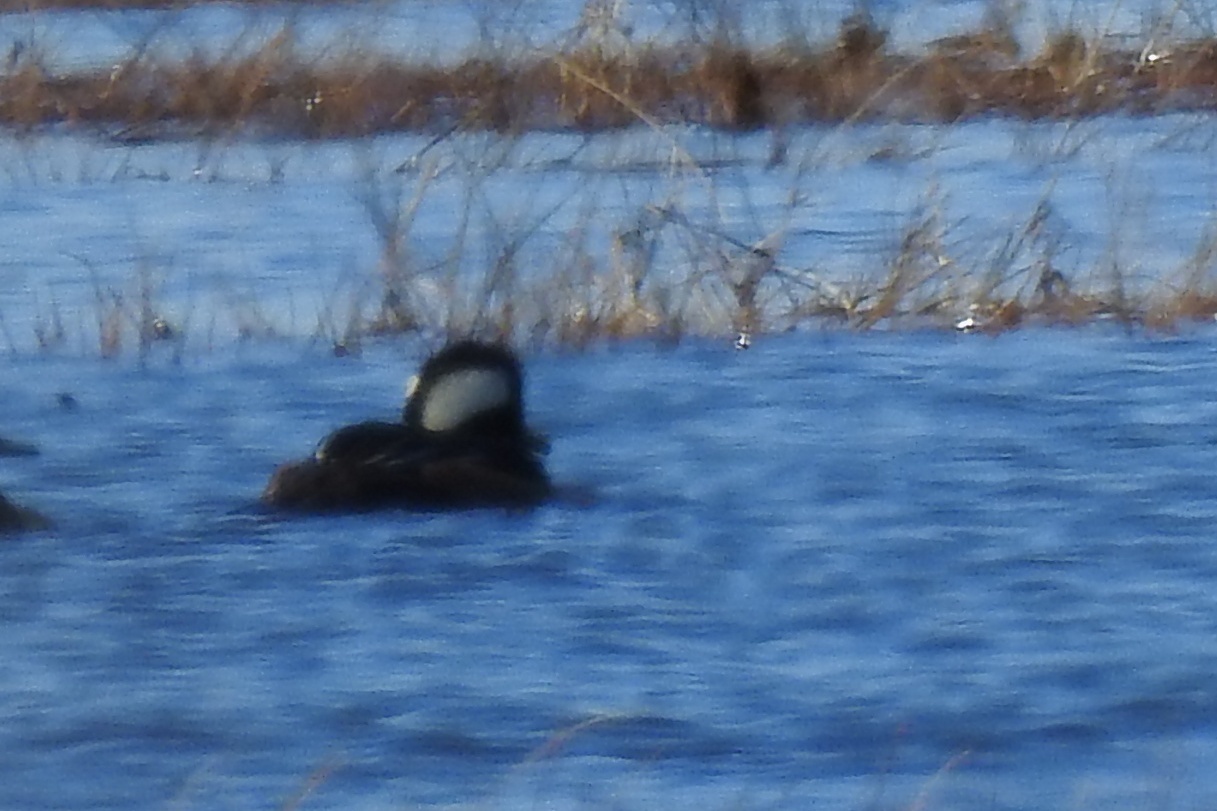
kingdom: Animalia
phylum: Chordata
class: Aves
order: Anseriformes
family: Anatidae
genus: Lophodytes
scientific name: Lophodytes cucullatus
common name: Hooded merganser
